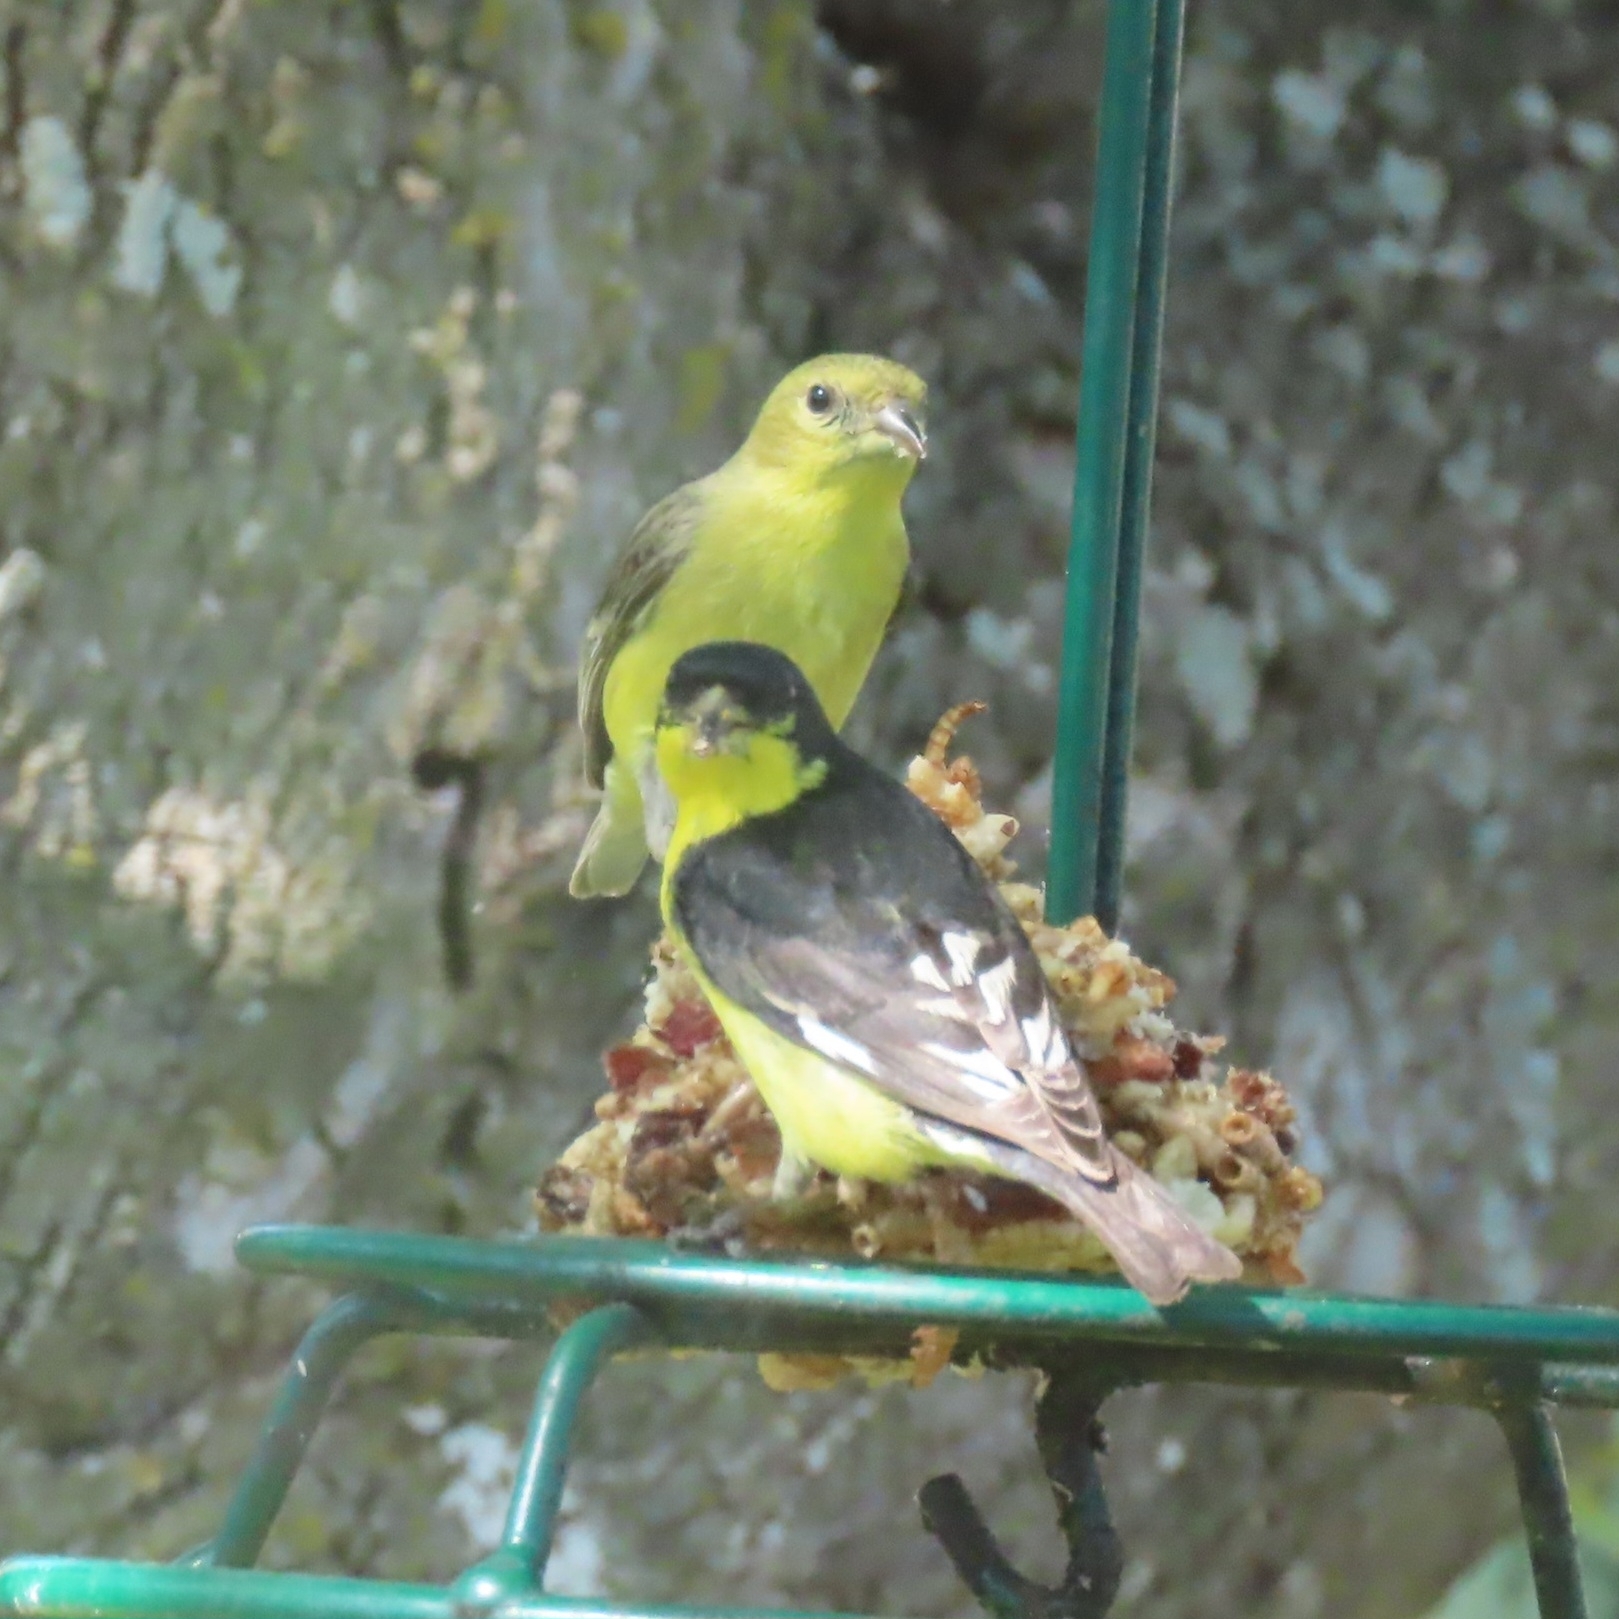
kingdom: Animalia
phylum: Chordata
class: Aves
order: Passeriformes
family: Fringillidae
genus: Spinus
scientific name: Spinus psaltria
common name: Lesser goldfinch
